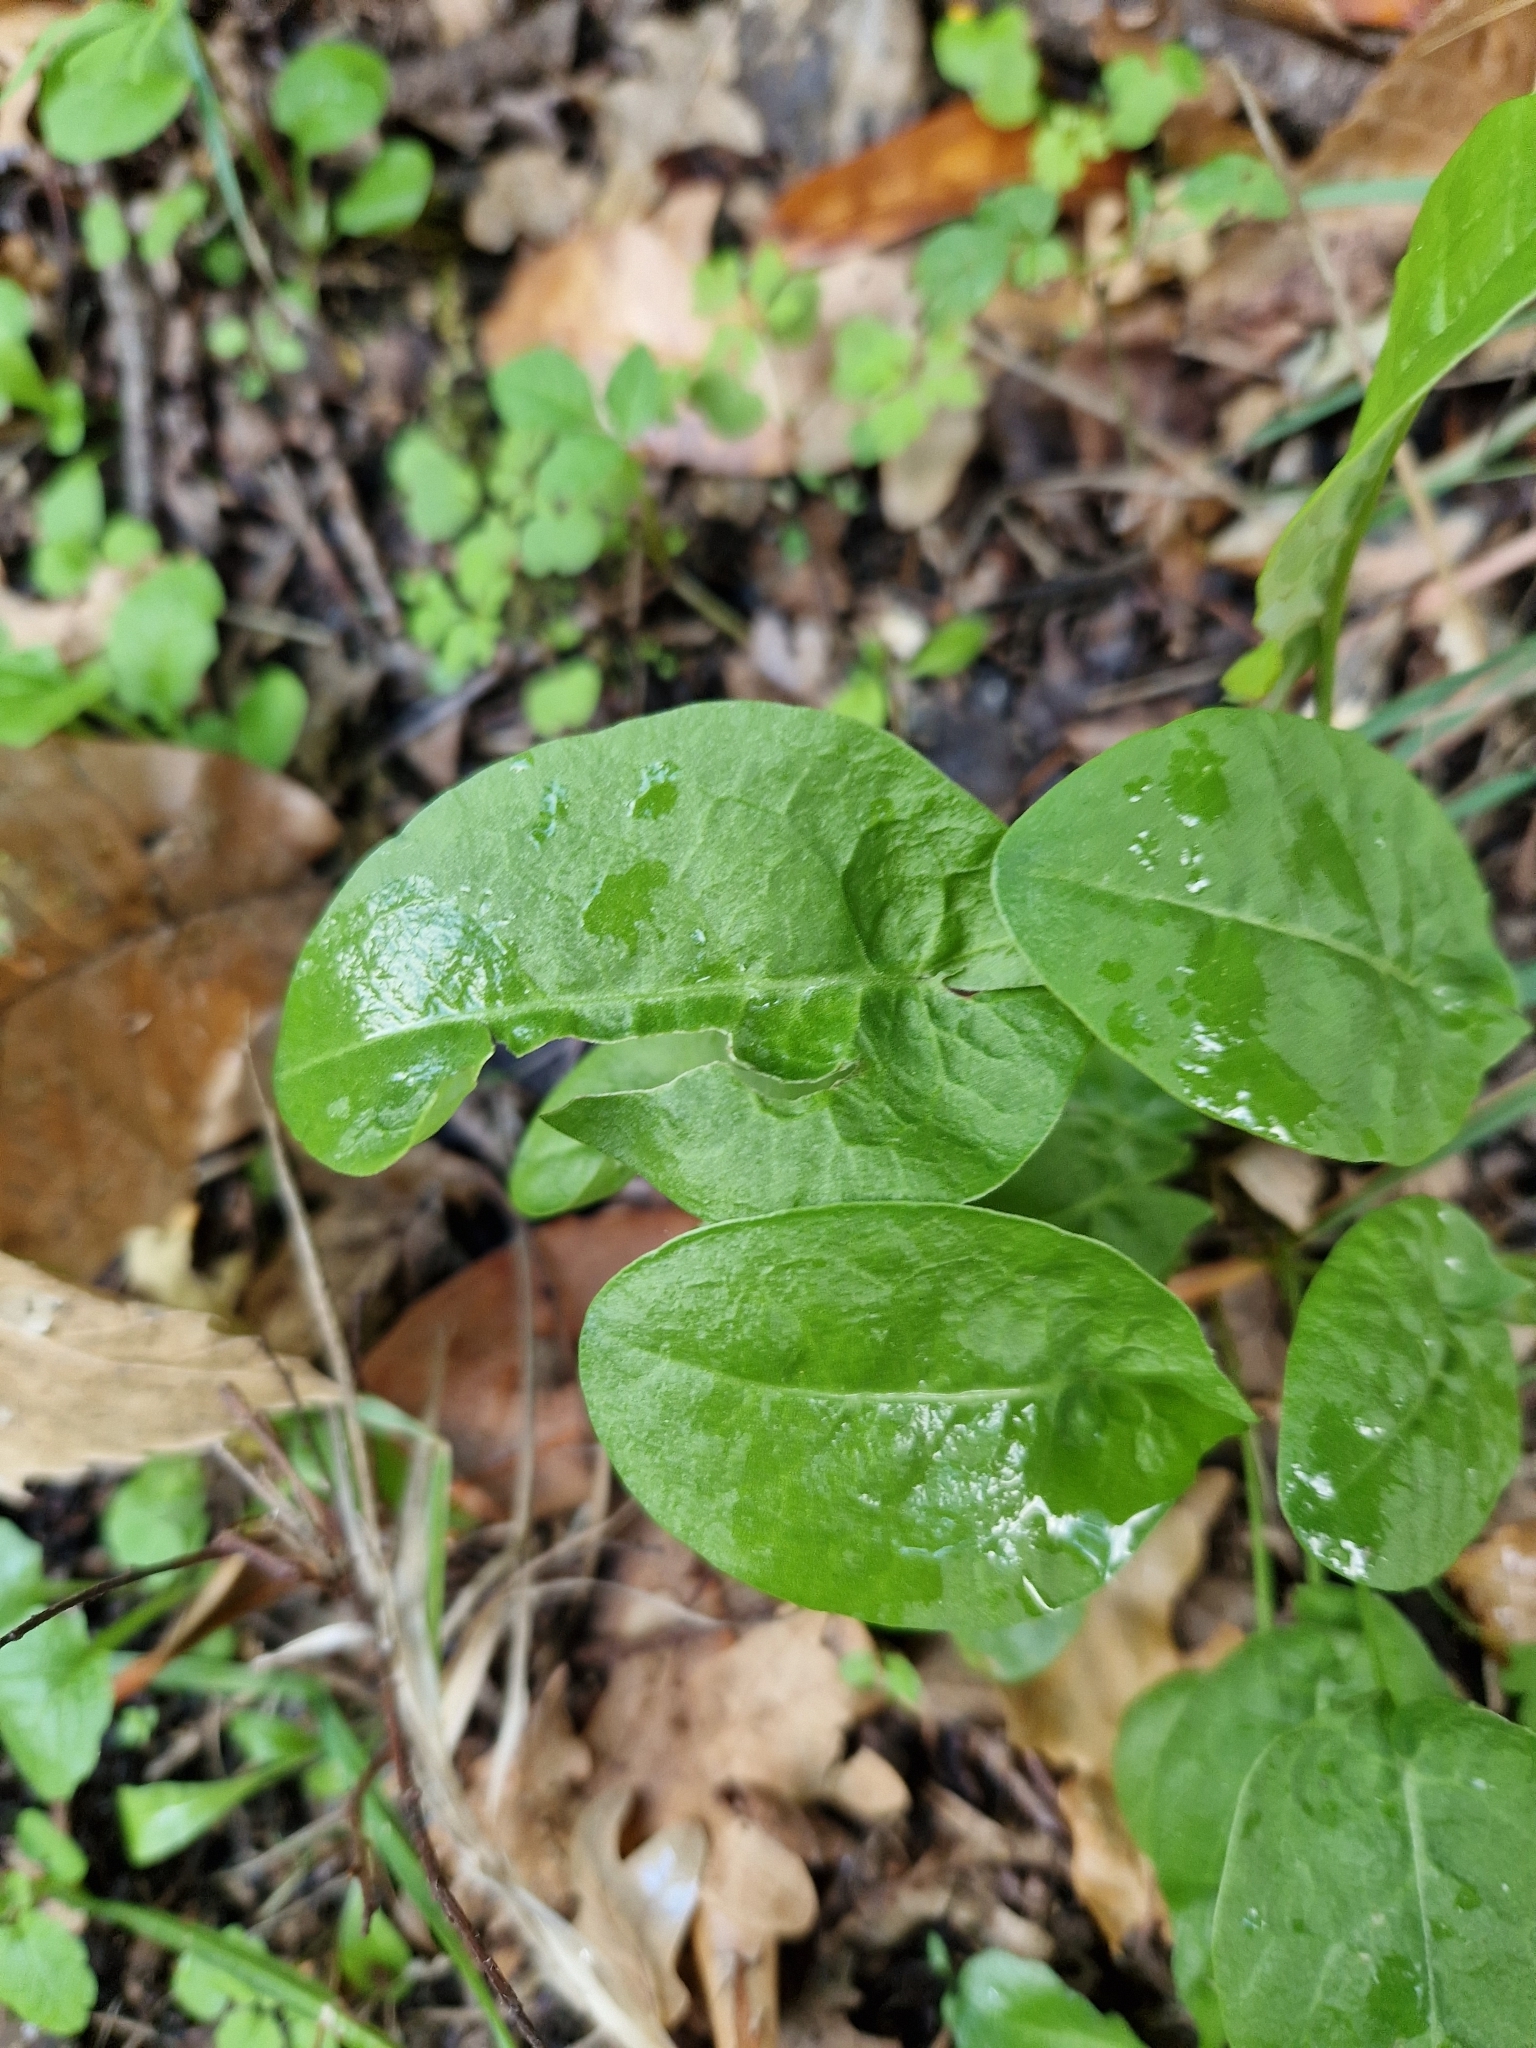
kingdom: Plantae
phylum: Tracheophyta
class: Magnoliopsida
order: Caryophyllales
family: Polygonaceae
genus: Rumex
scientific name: Rumex acetosa
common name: Garden sorrel
